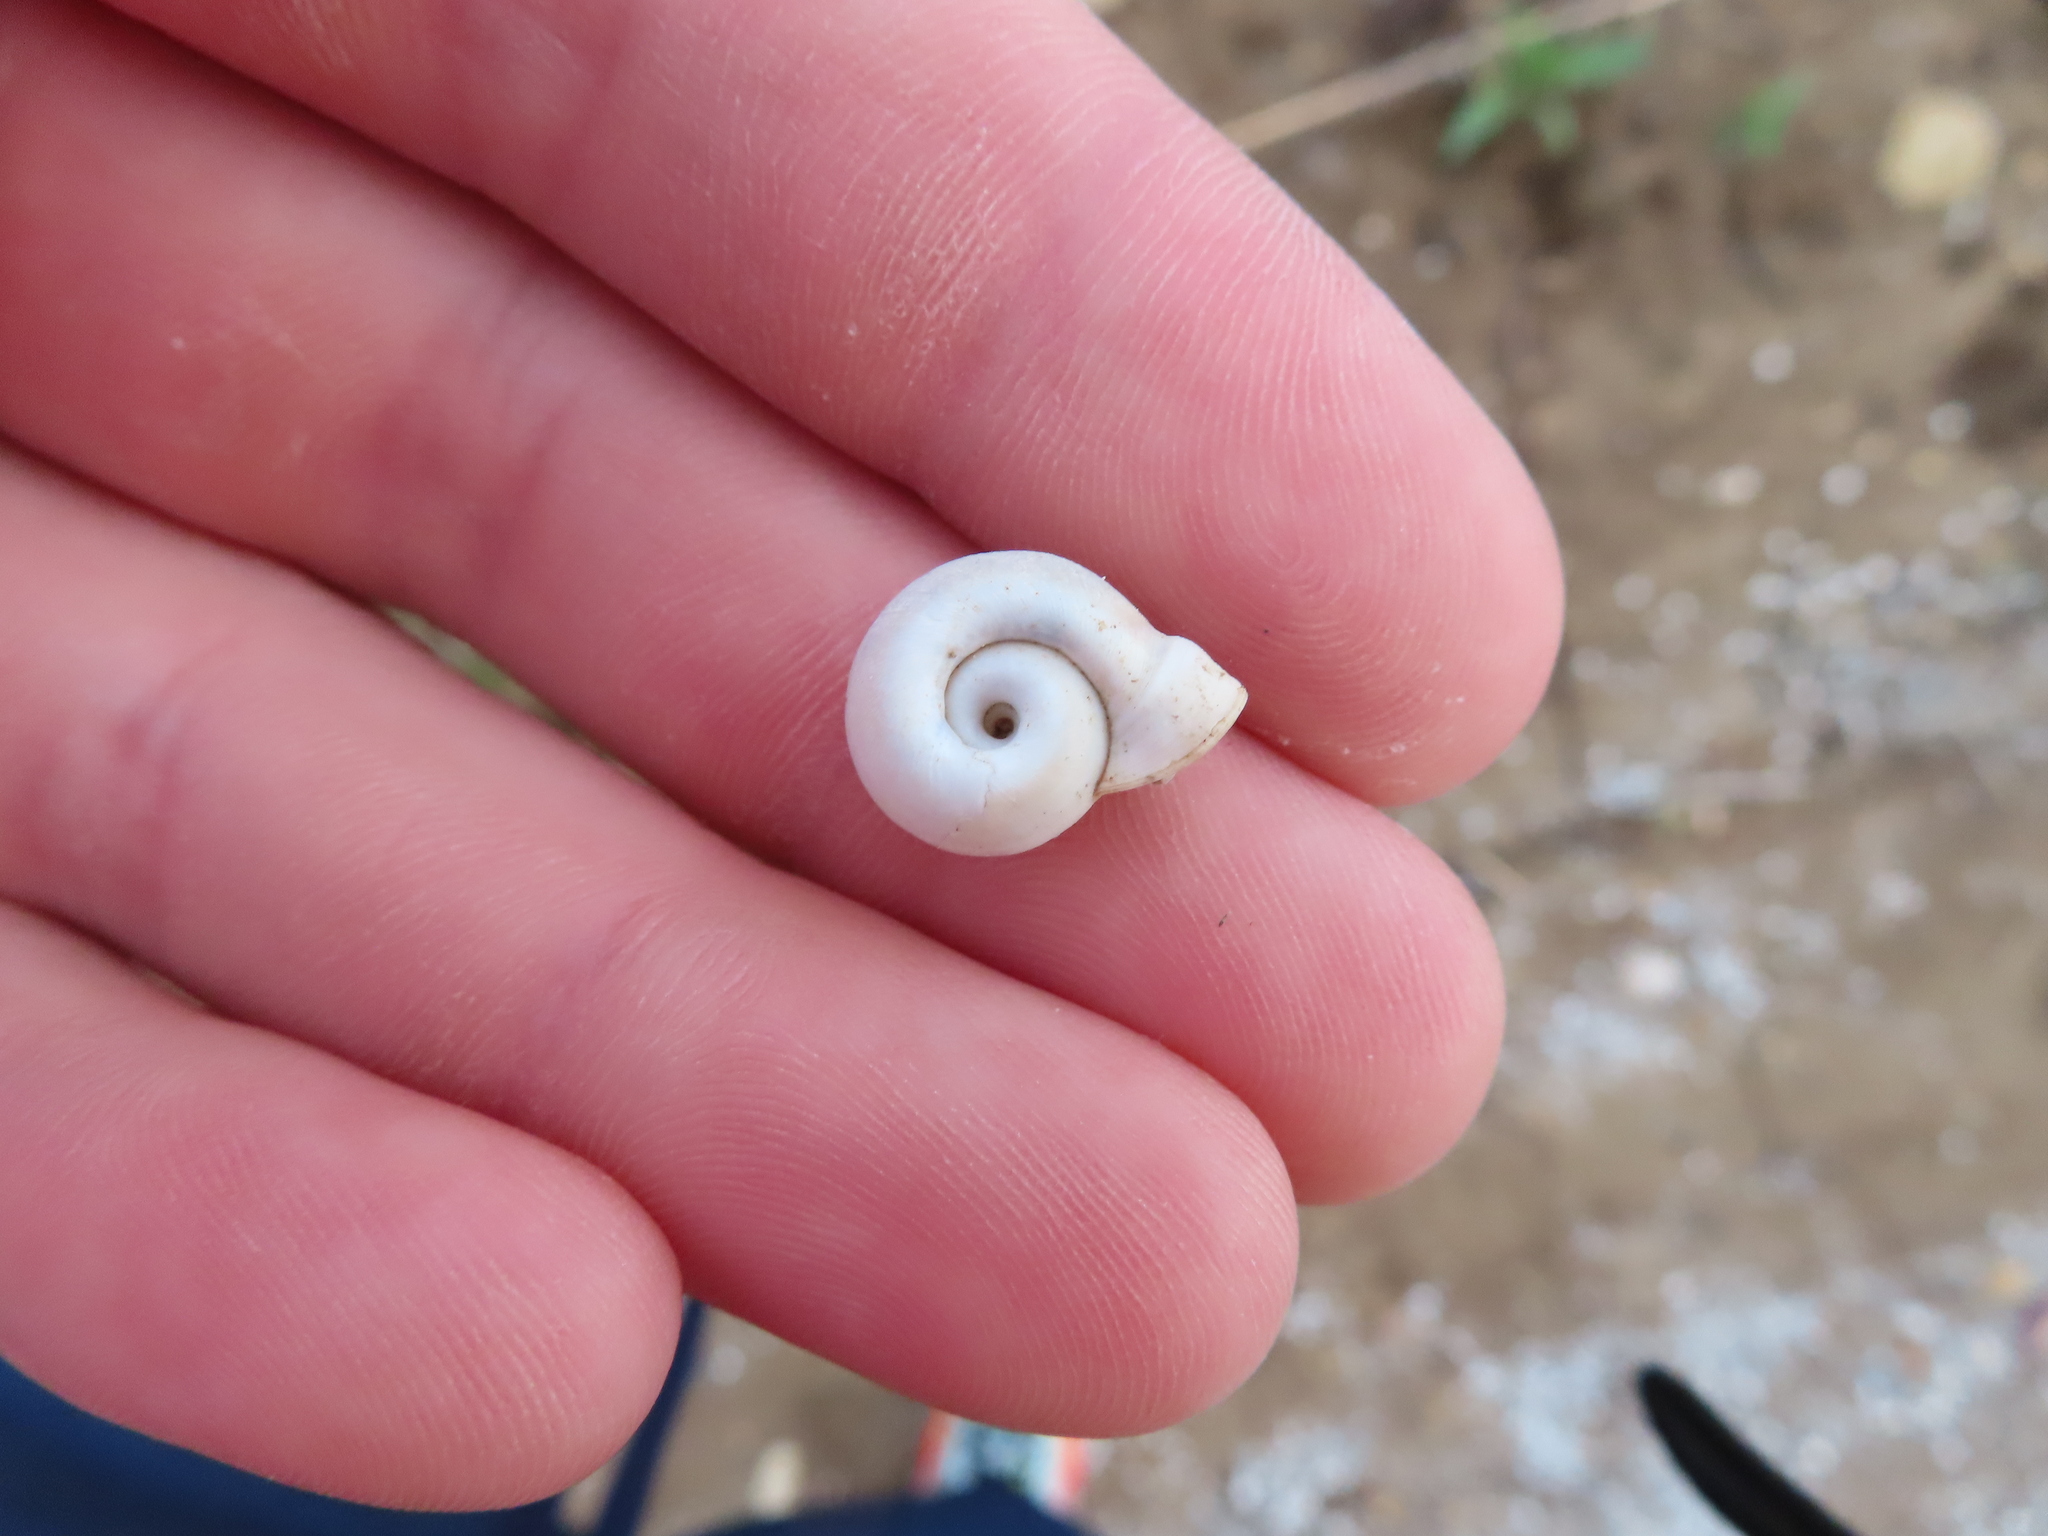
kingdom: Animalia
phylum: Mollusca
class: Gastropoda
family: Planorbidae
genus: Planorbella
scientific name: Planorbella campanulata
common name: Bellmouth ramshorn
